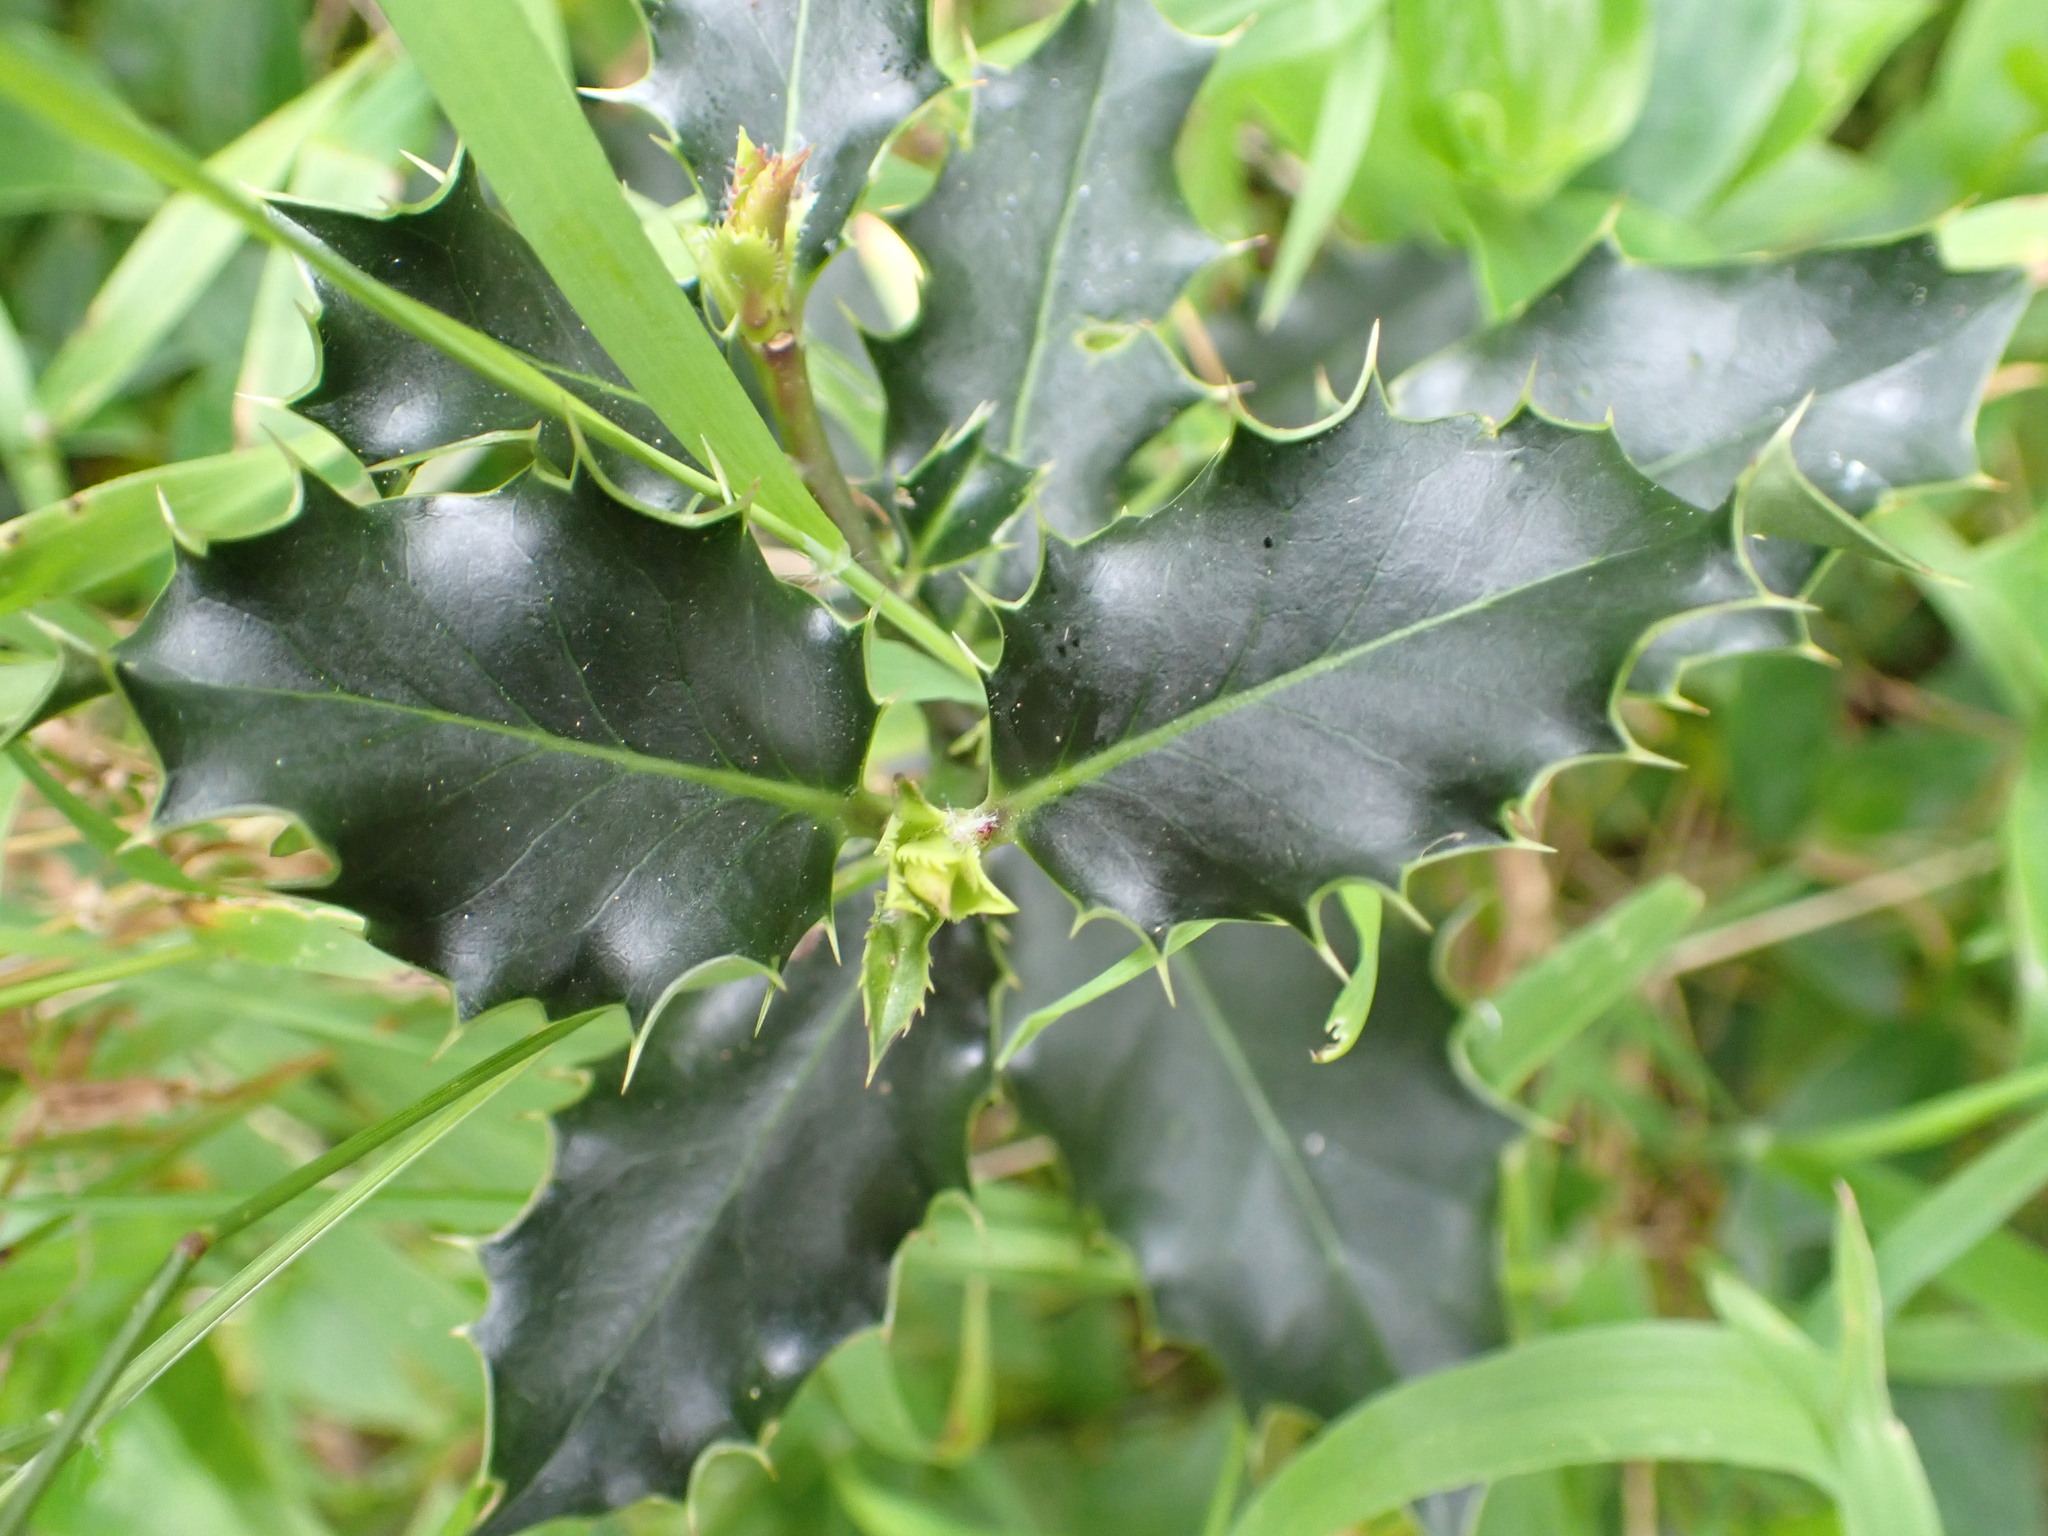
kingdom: Plantae
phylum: Tracheophyta
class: Magnoliopsida
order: Aquifoliales
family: Aquifoliaceae
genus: Ilex
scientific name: Ilex aquifolium
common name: English holly
